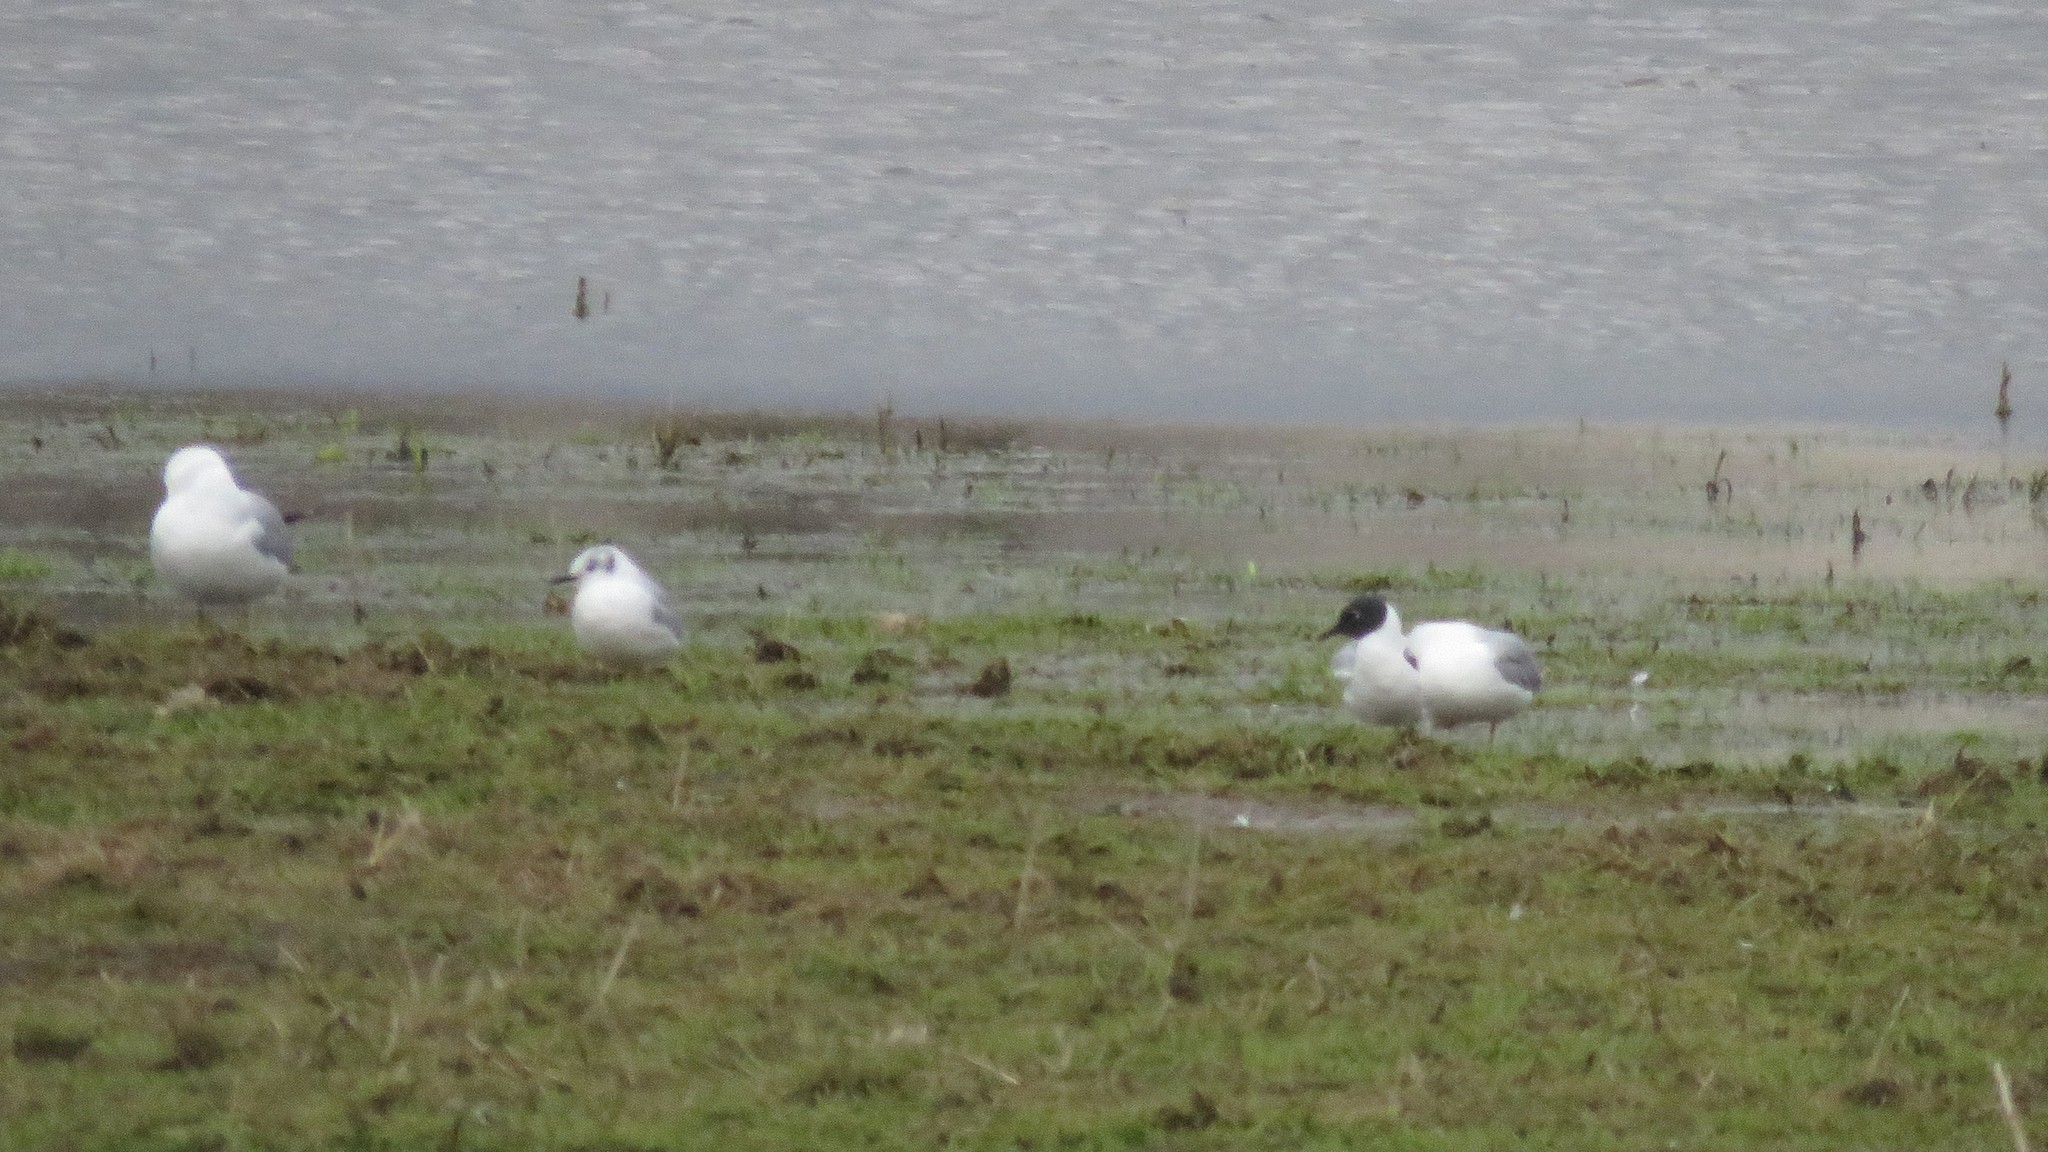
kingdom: Animalia
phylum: Chordata
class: Aves
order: Charadriiformes
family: Laridae
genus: Chroicocephalus
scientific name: Chroicocephalus philadelphia
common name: Bonaparte's gull
